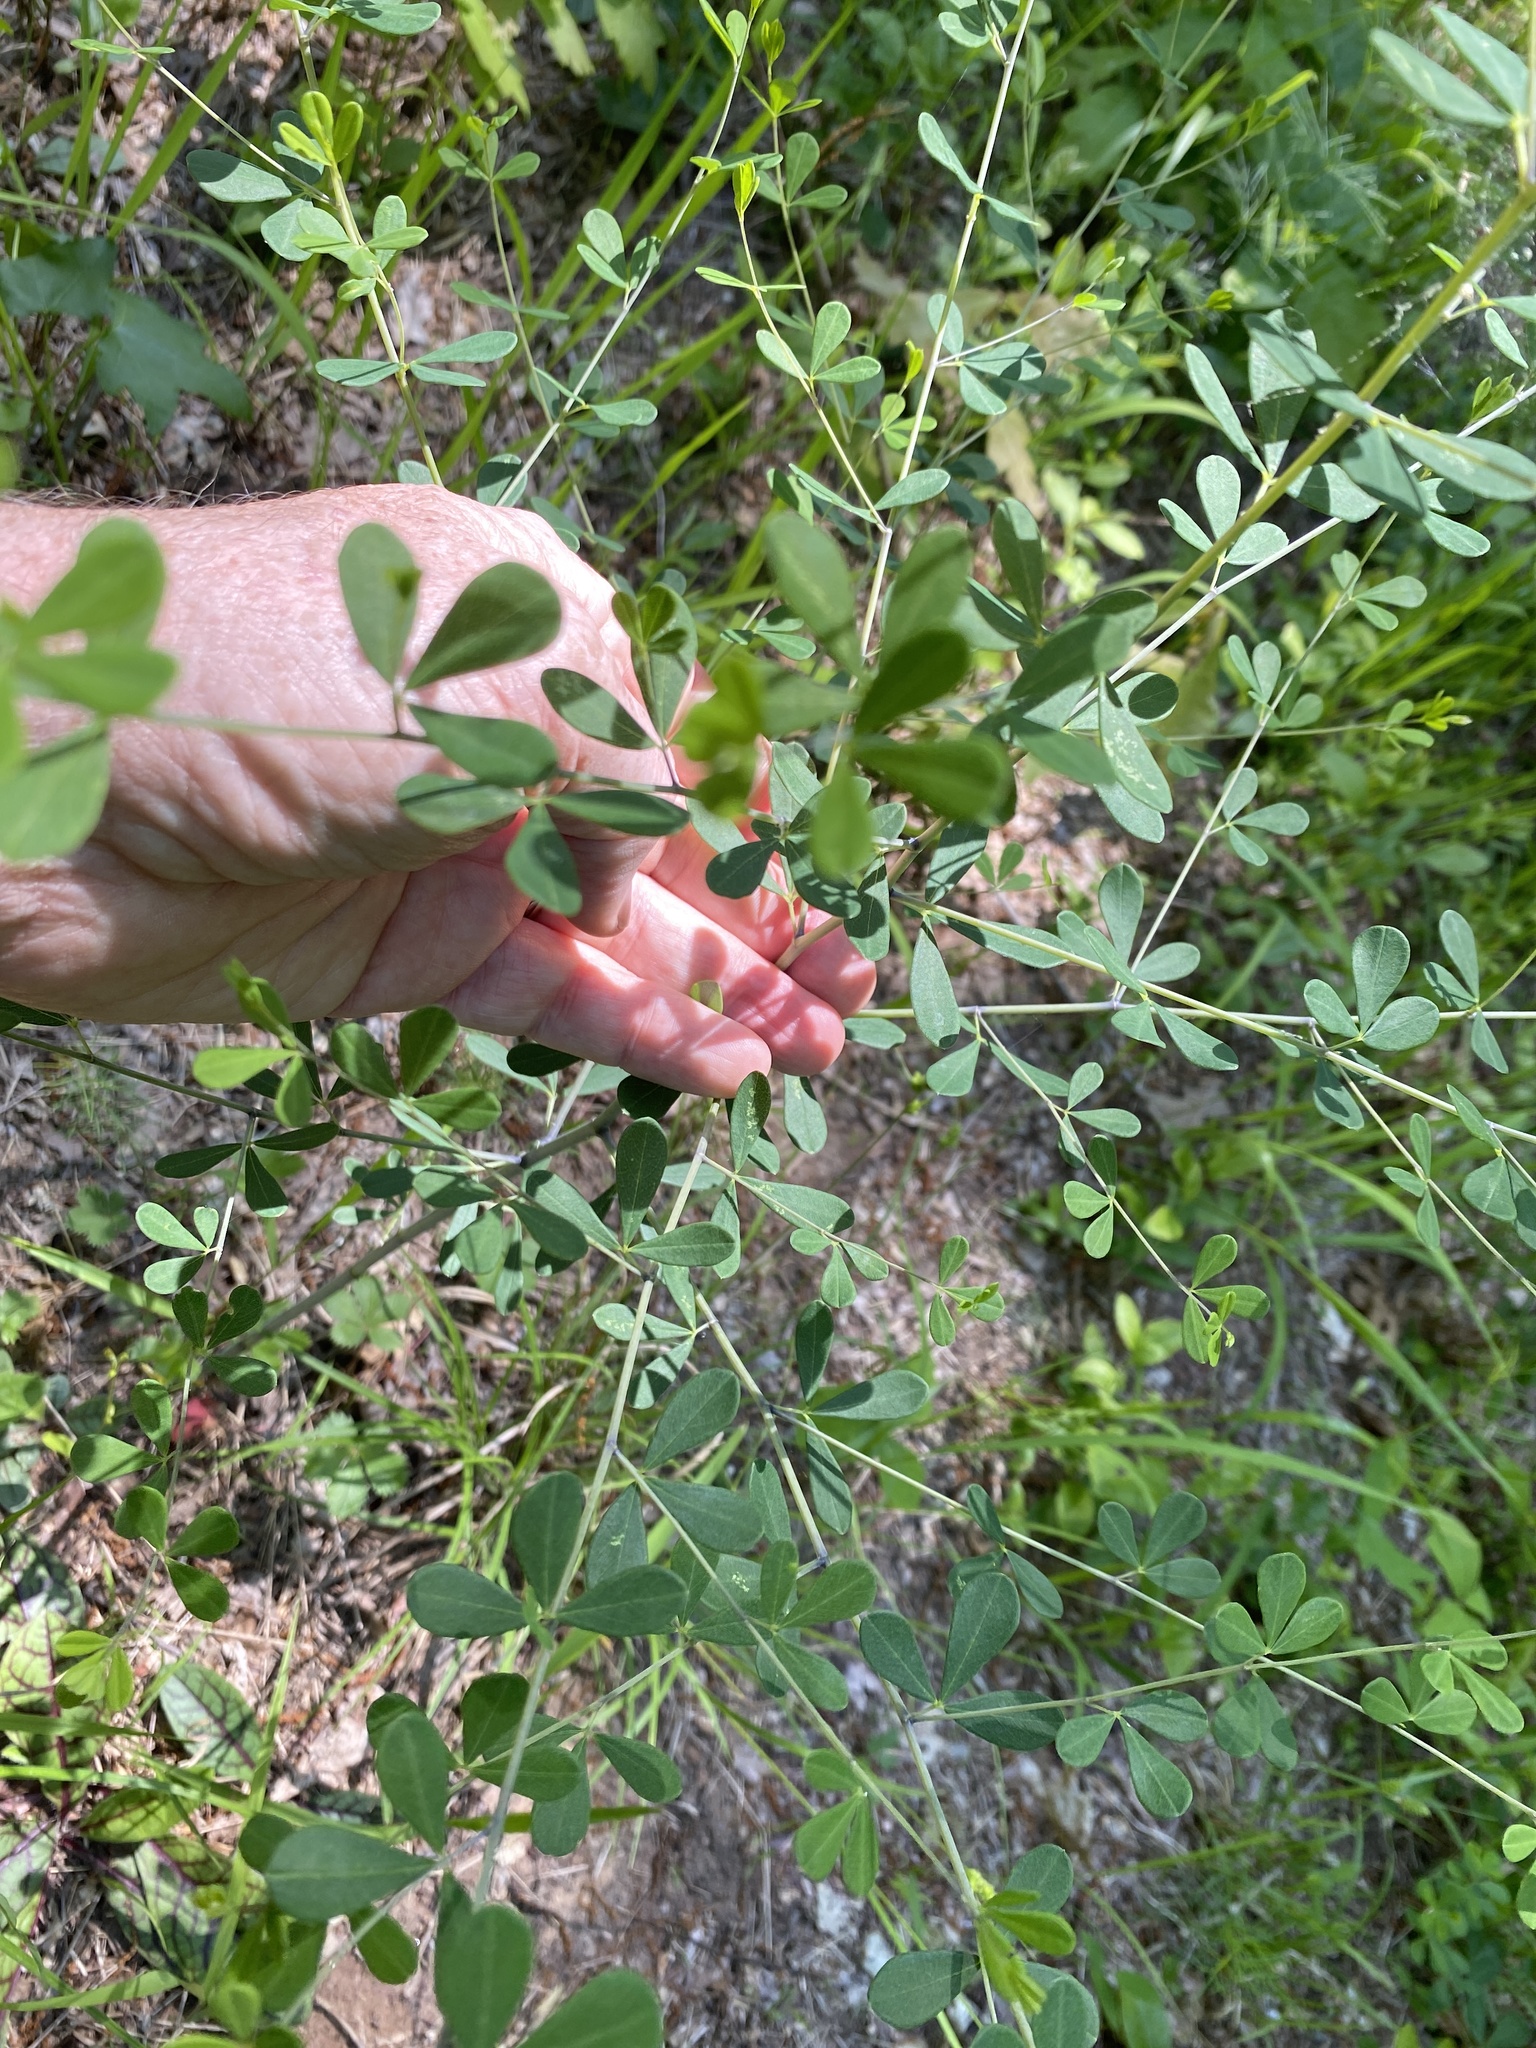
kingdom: Plantae
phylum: Tracheophyta
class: Magnoliopsida
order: Fabales
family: Fabaceae
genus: Baptisia
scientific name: Baptisia tinctoria
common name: Wild indigo
